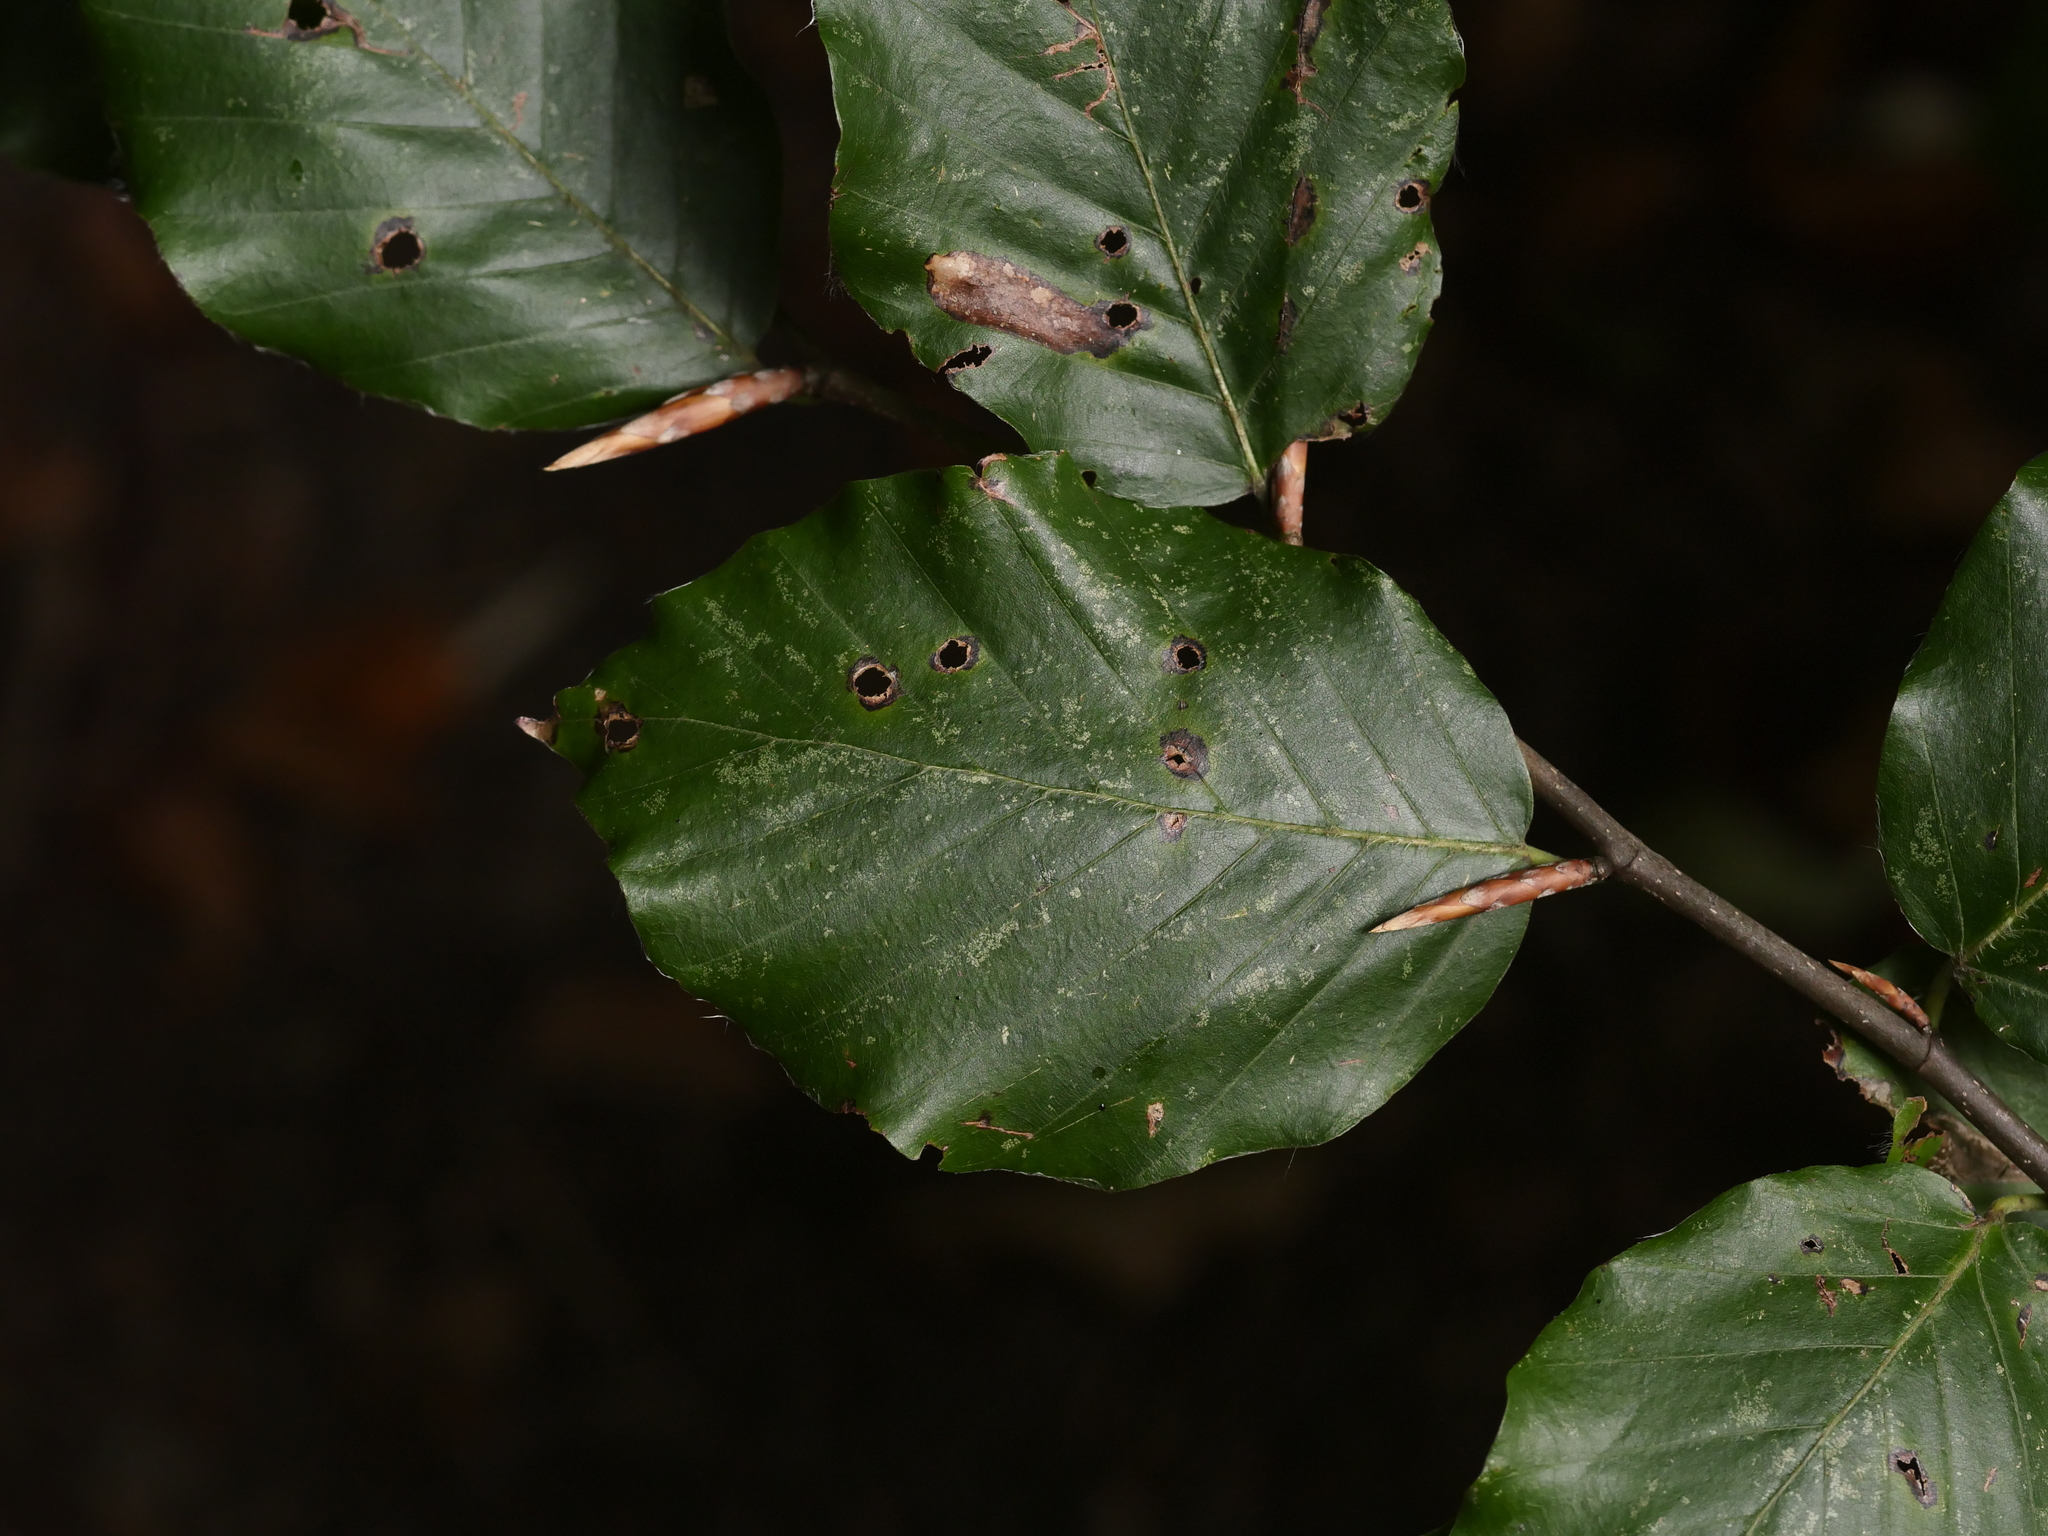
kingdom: Plantae
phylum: Tracheophyta
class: Magnoliopsida
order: Fagales
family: Fagaceae
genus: Fagus
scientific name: Fagus sylvatica
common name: Beech
